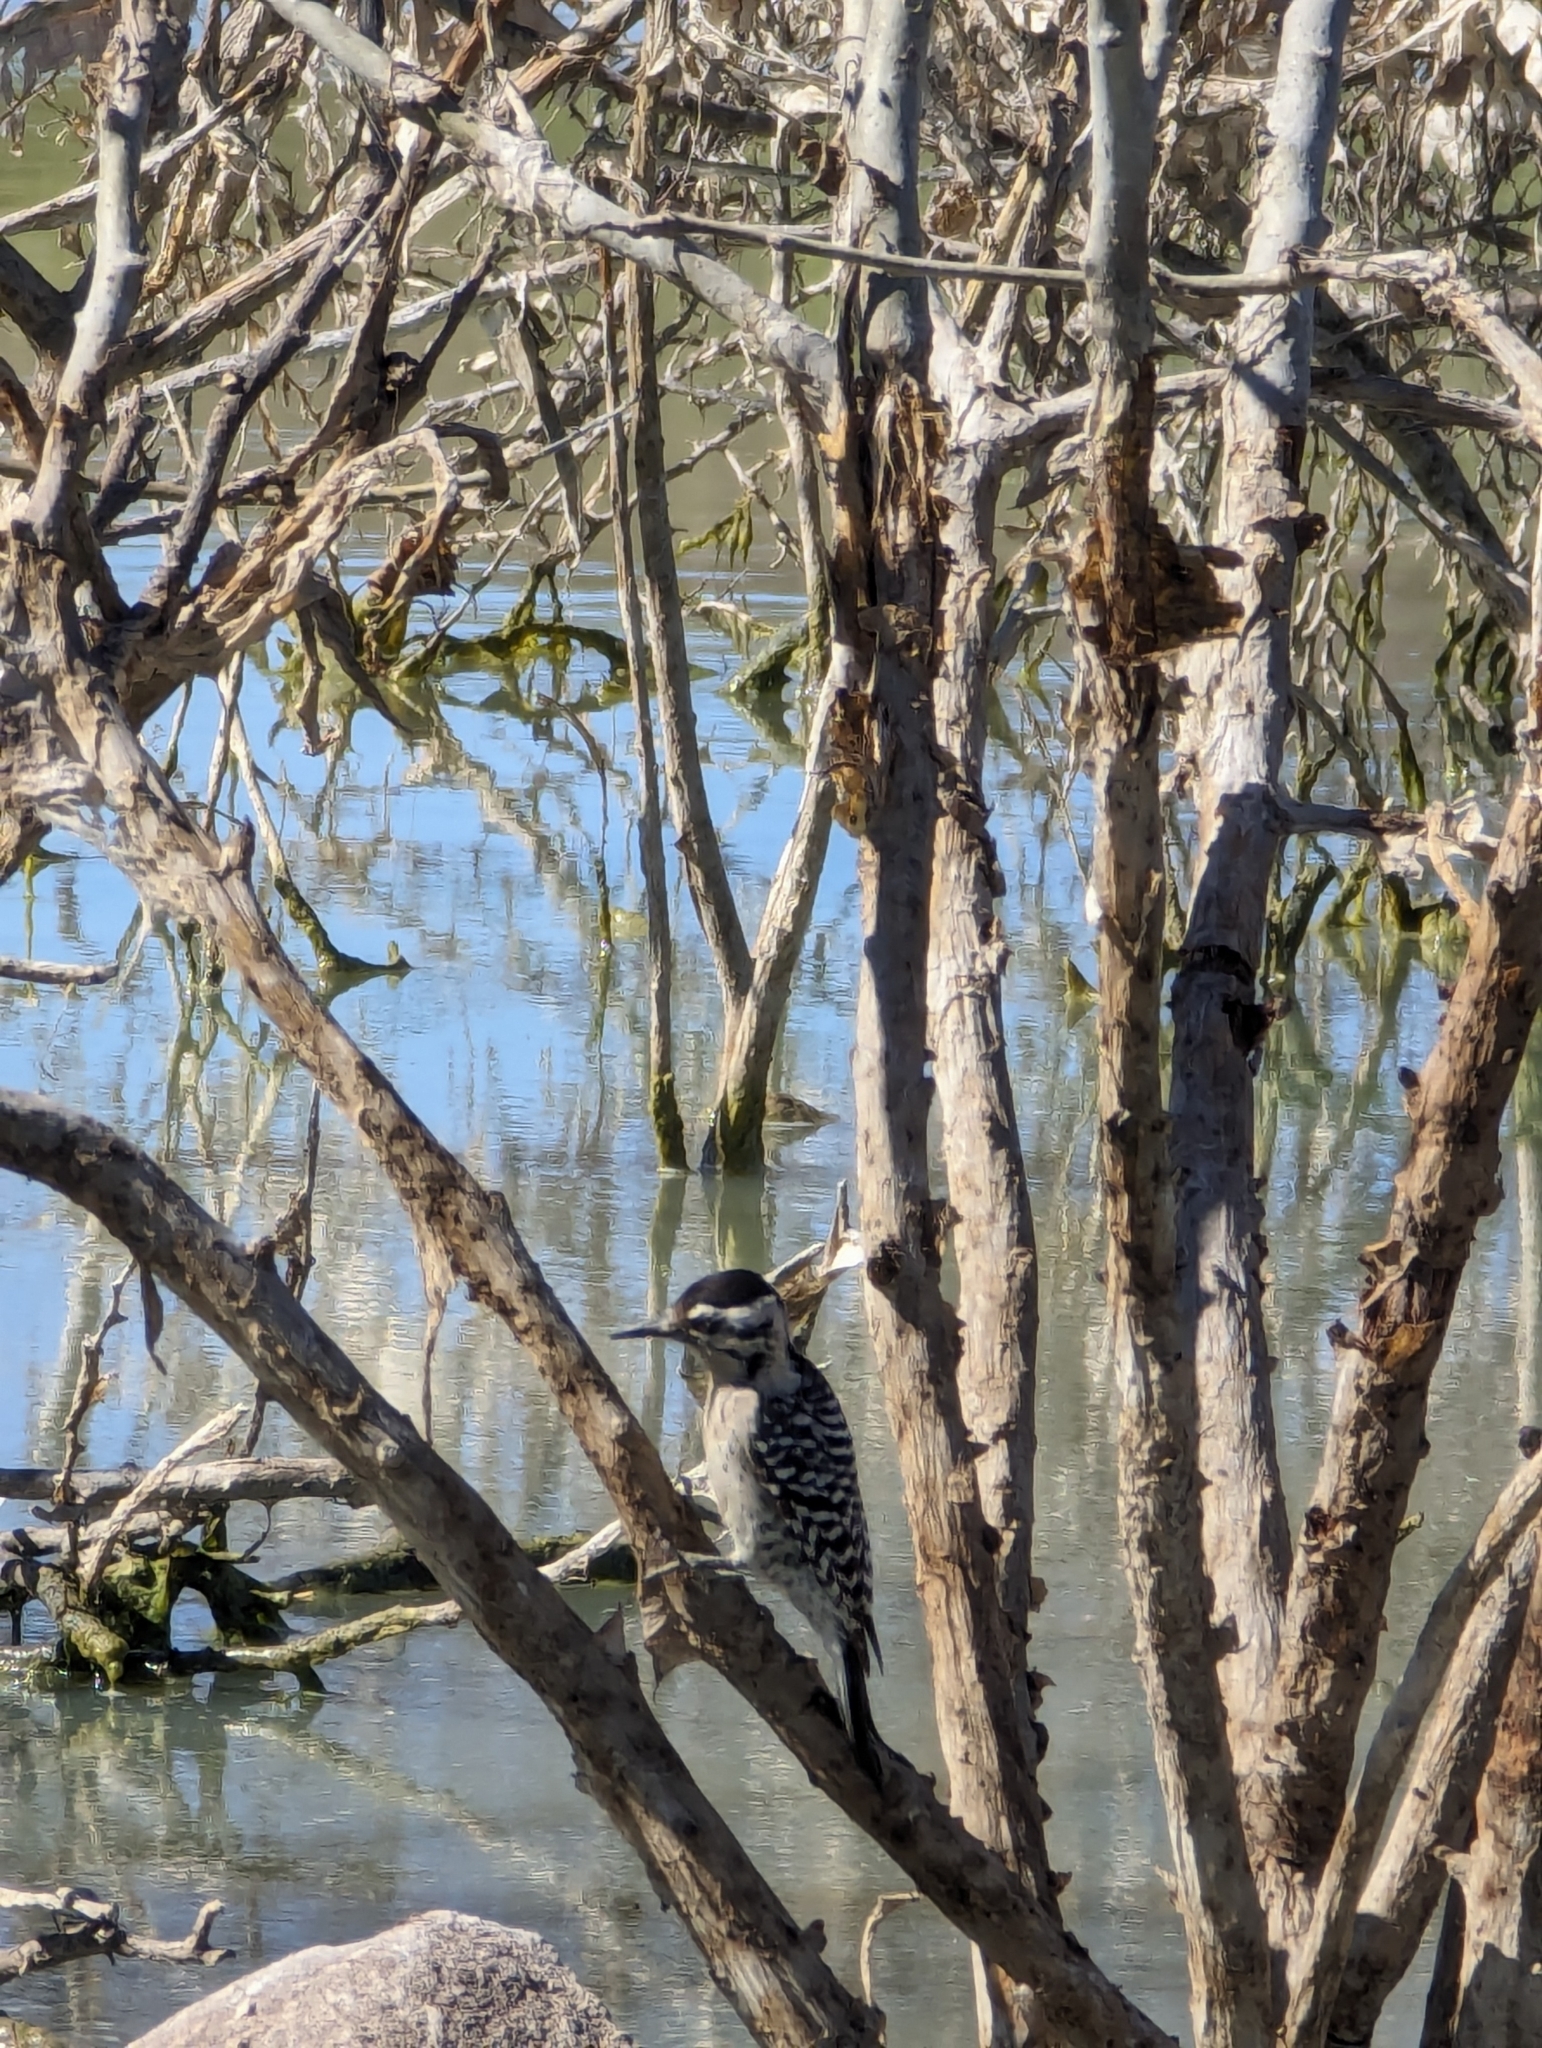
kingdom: Animalia
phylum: Chordata
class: Aves
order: Piciformes
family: Picidae
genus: Dryobates
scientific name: Dryobates scalaris
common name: Ladder-backed woodpecker
